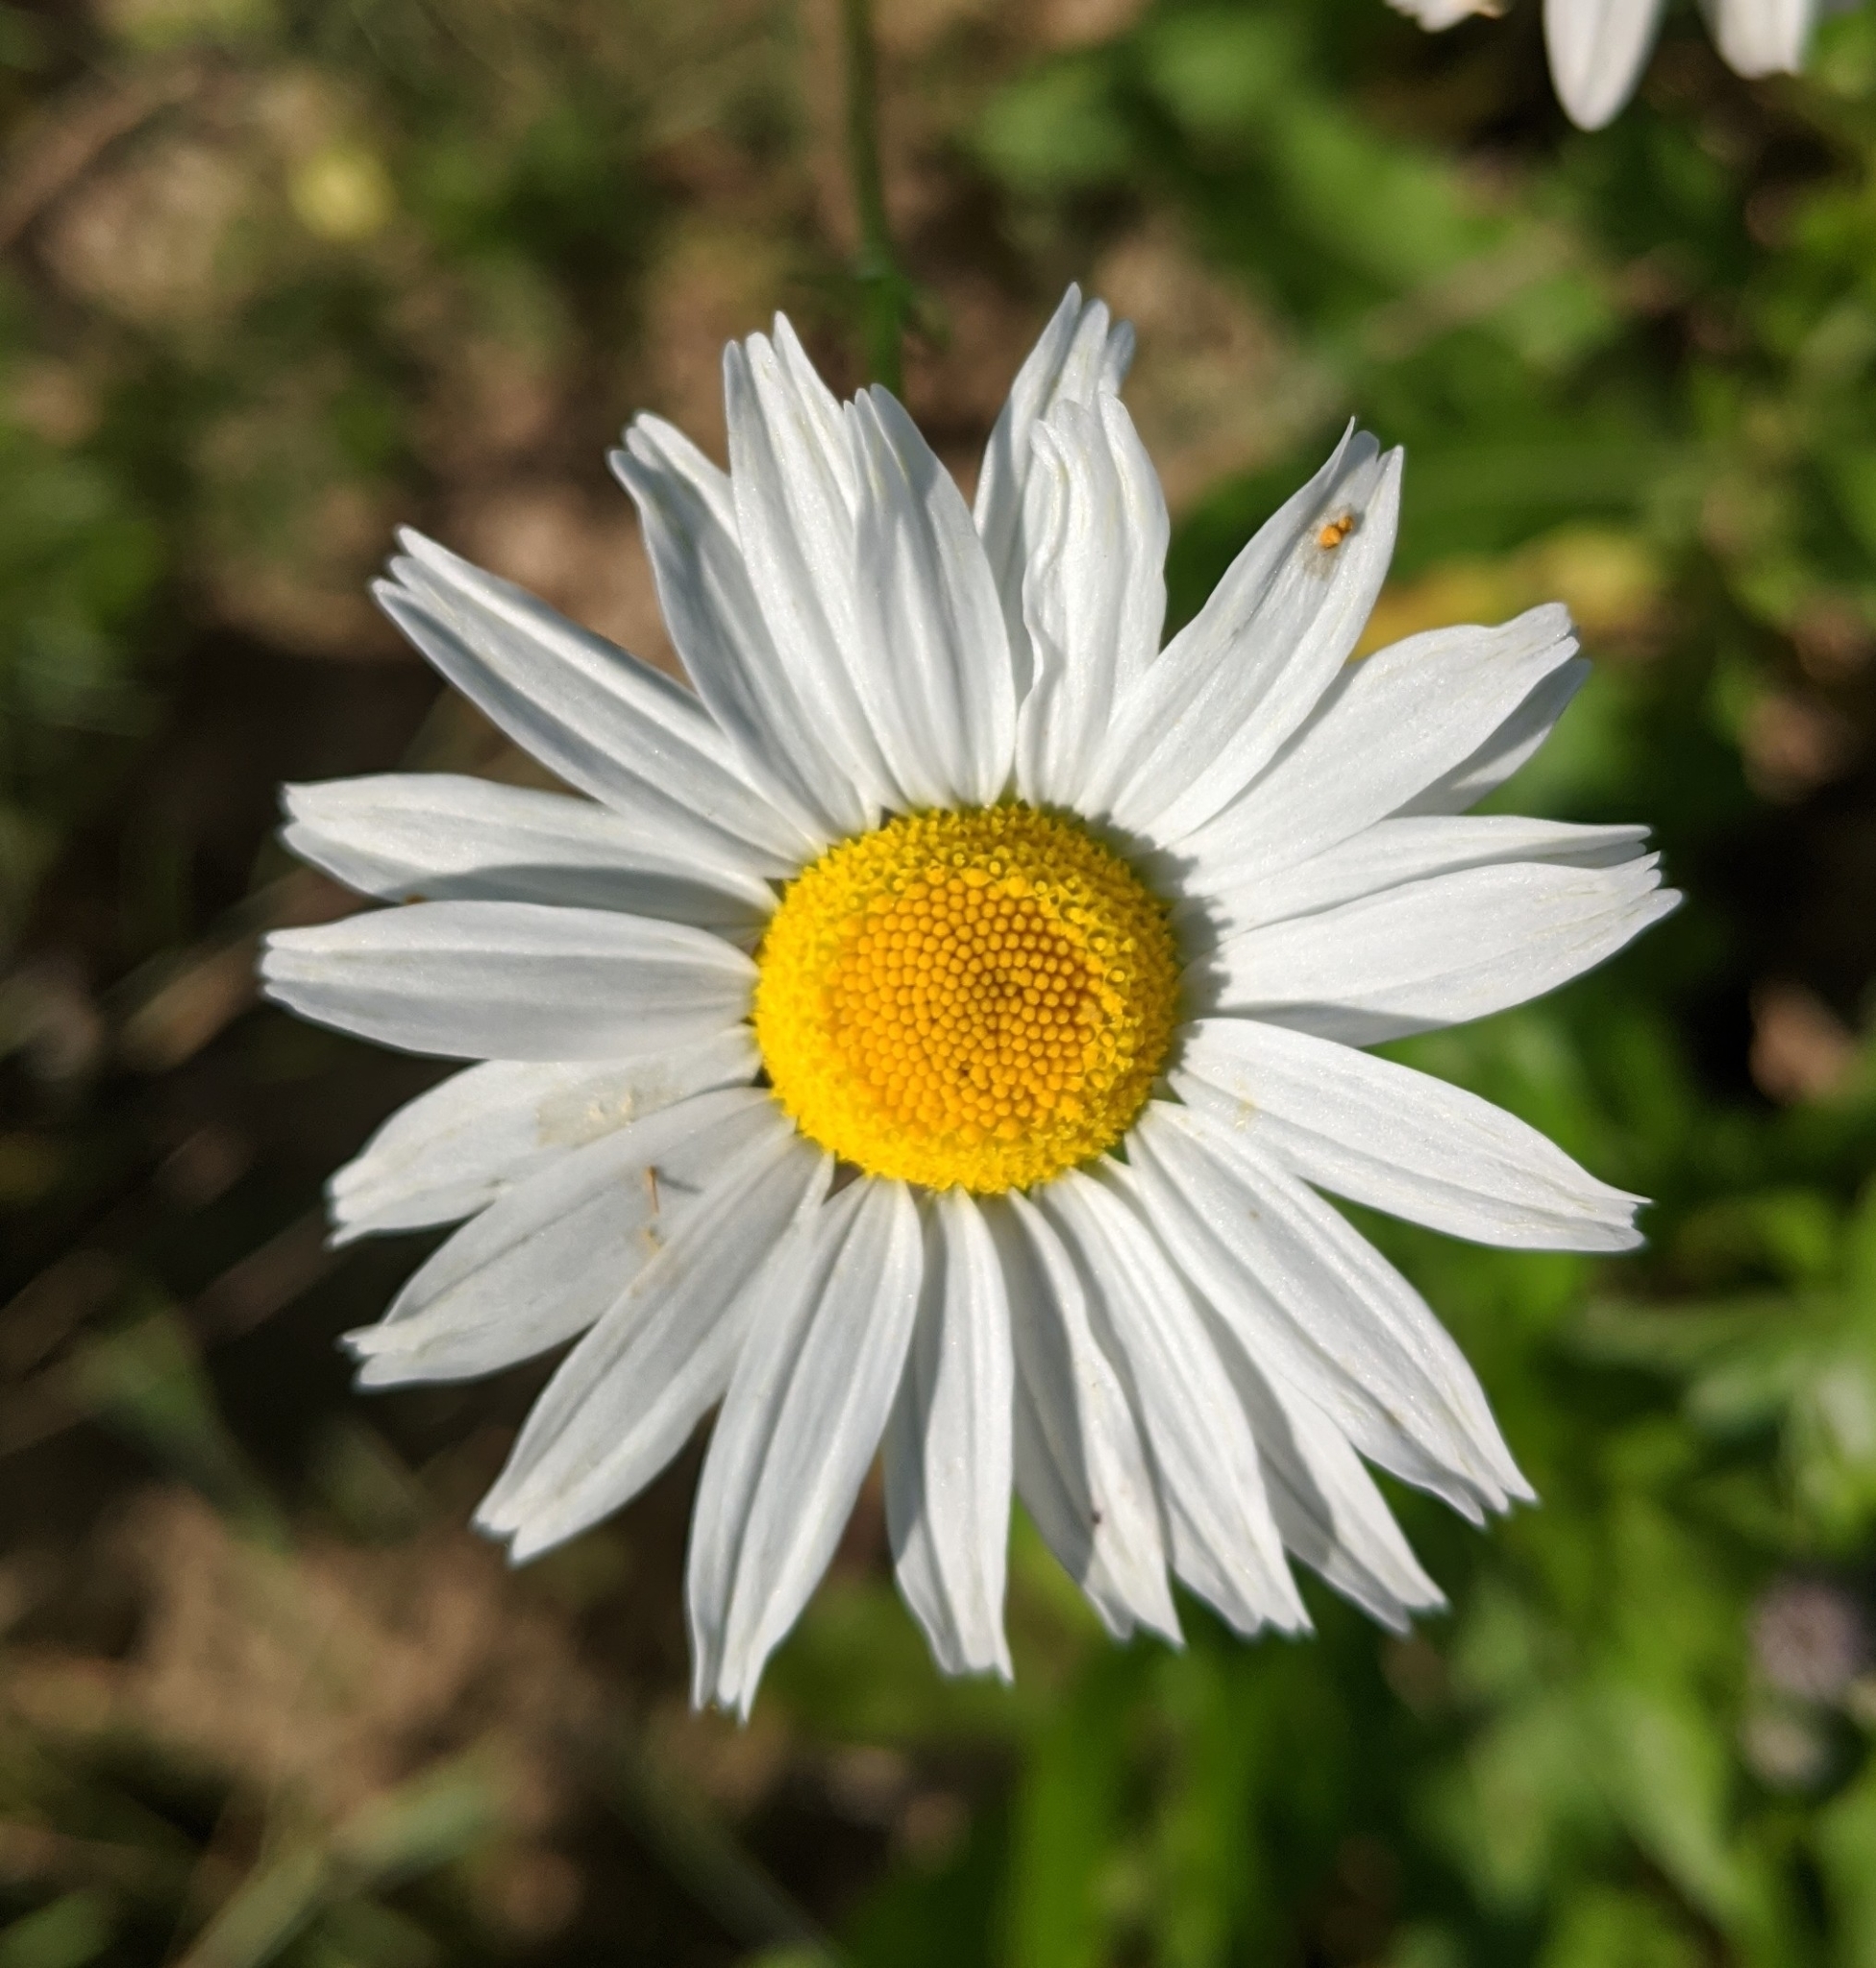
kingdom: Plantae
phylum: Tracheophyta
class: Magnoliopsida
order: Asterales
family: Asteraceae
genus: Tripleurospermum
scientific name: Tripleurospermum inodorum
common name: Scentless mayweed
